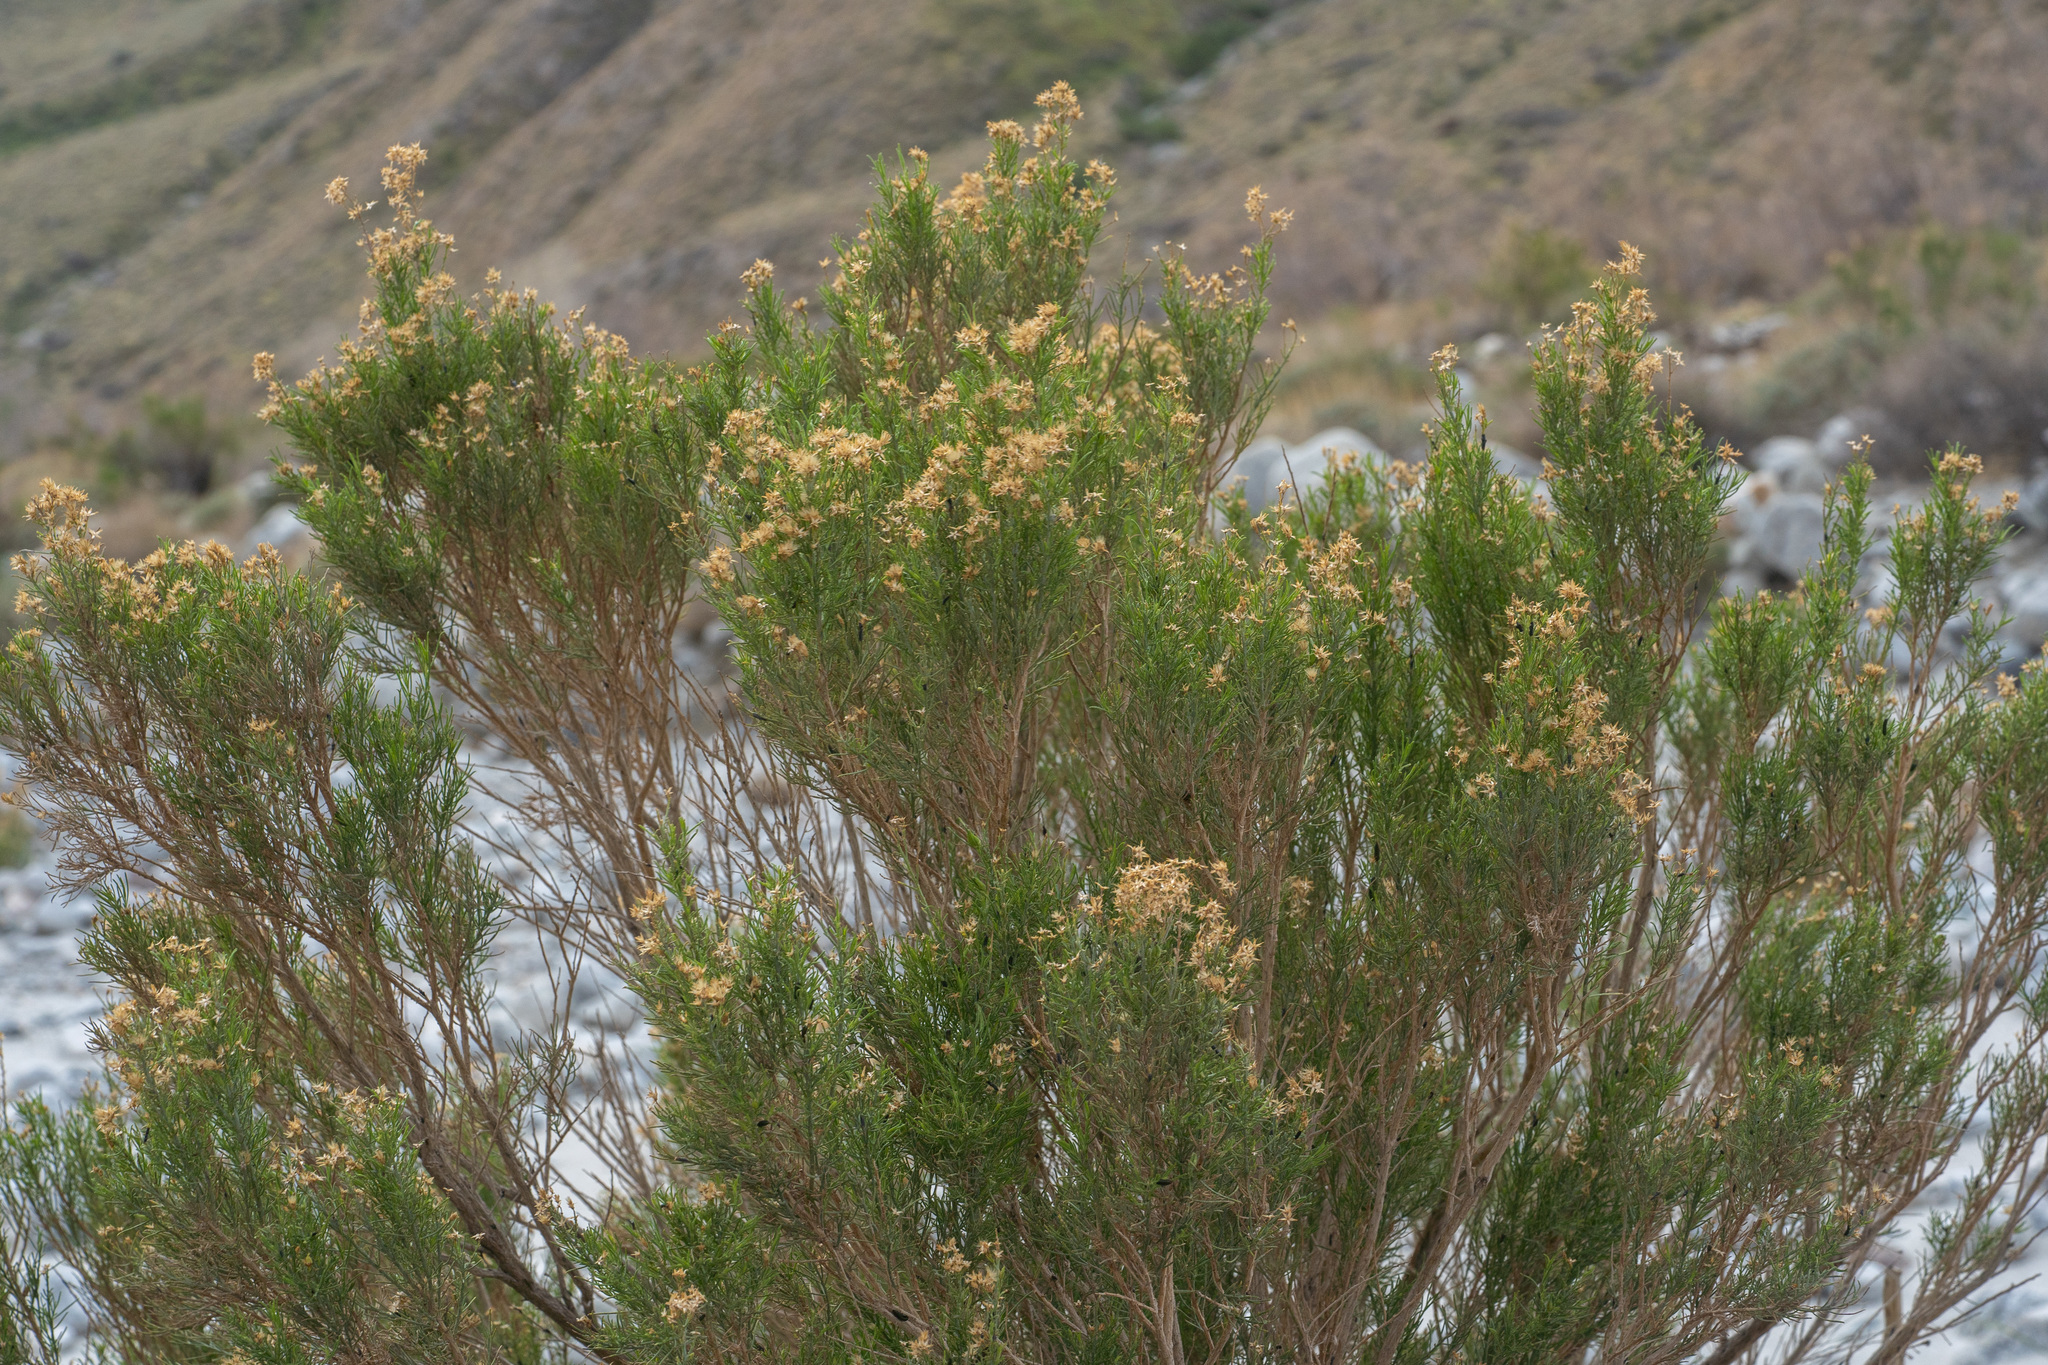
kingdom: Plantae
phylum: Tracheophyta
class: Magnoliopsida
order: Asterales
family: Asteraceae
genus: Ericameria
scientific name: Ericameria paniculata
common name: Punctate rabbitbrush
